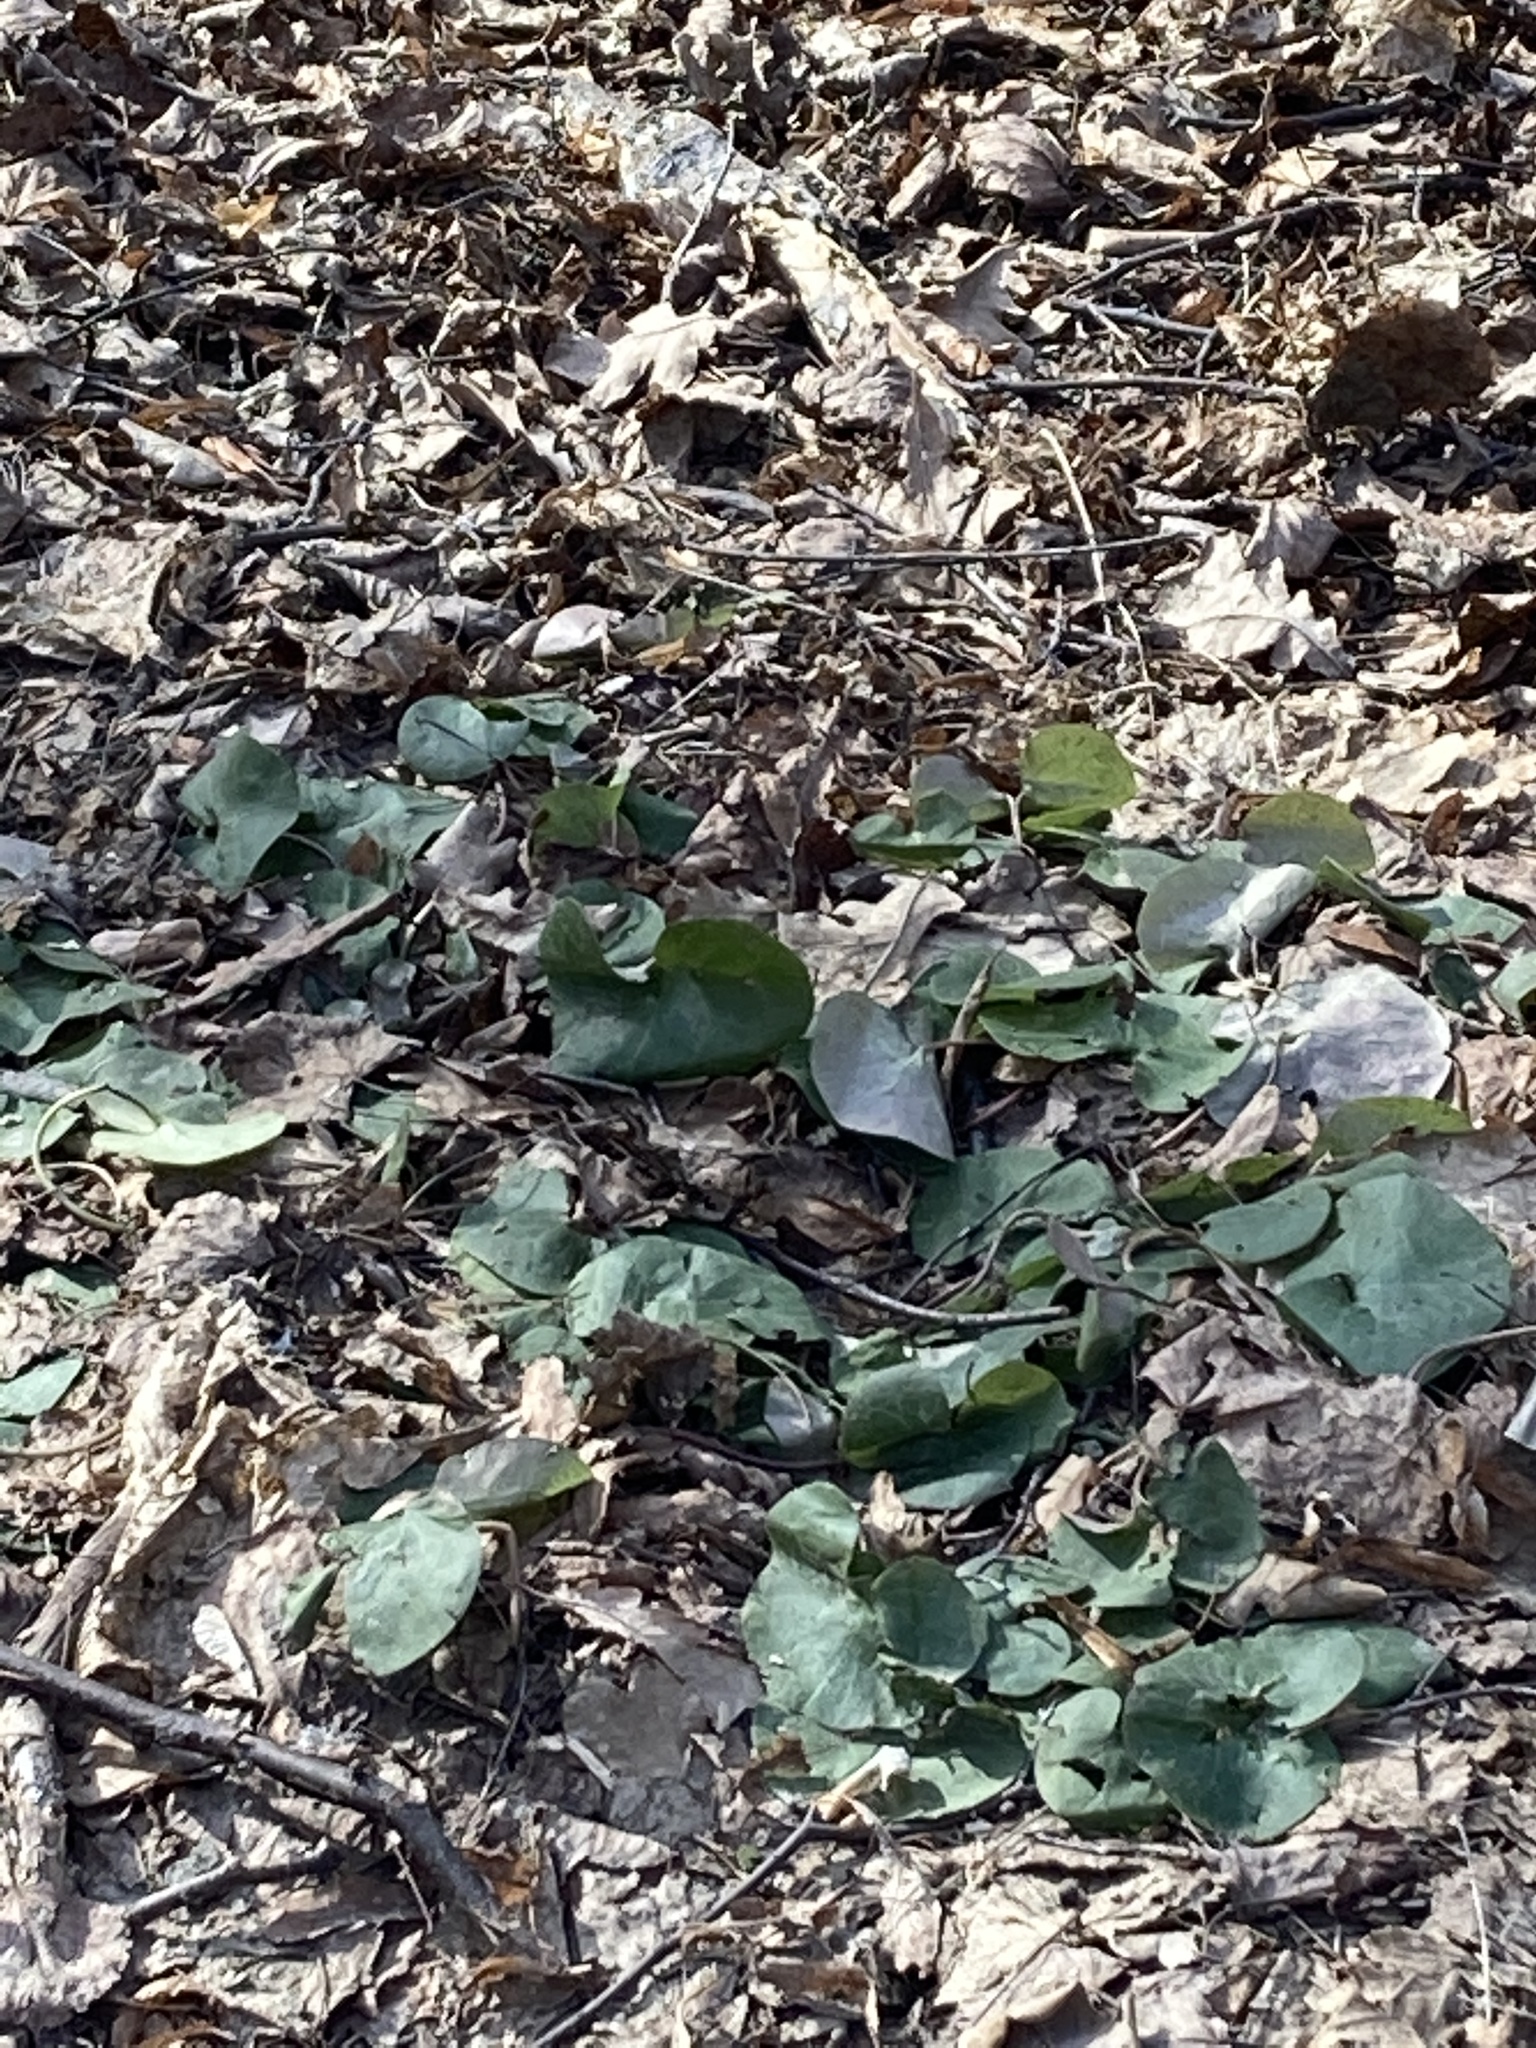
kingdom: Plantae
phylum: Tracheophyta
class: Magnoliopsida
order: Piperales
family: Aristolochiaceae
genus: Asarum
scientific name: Asarum europaeum
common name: Asarabacca
